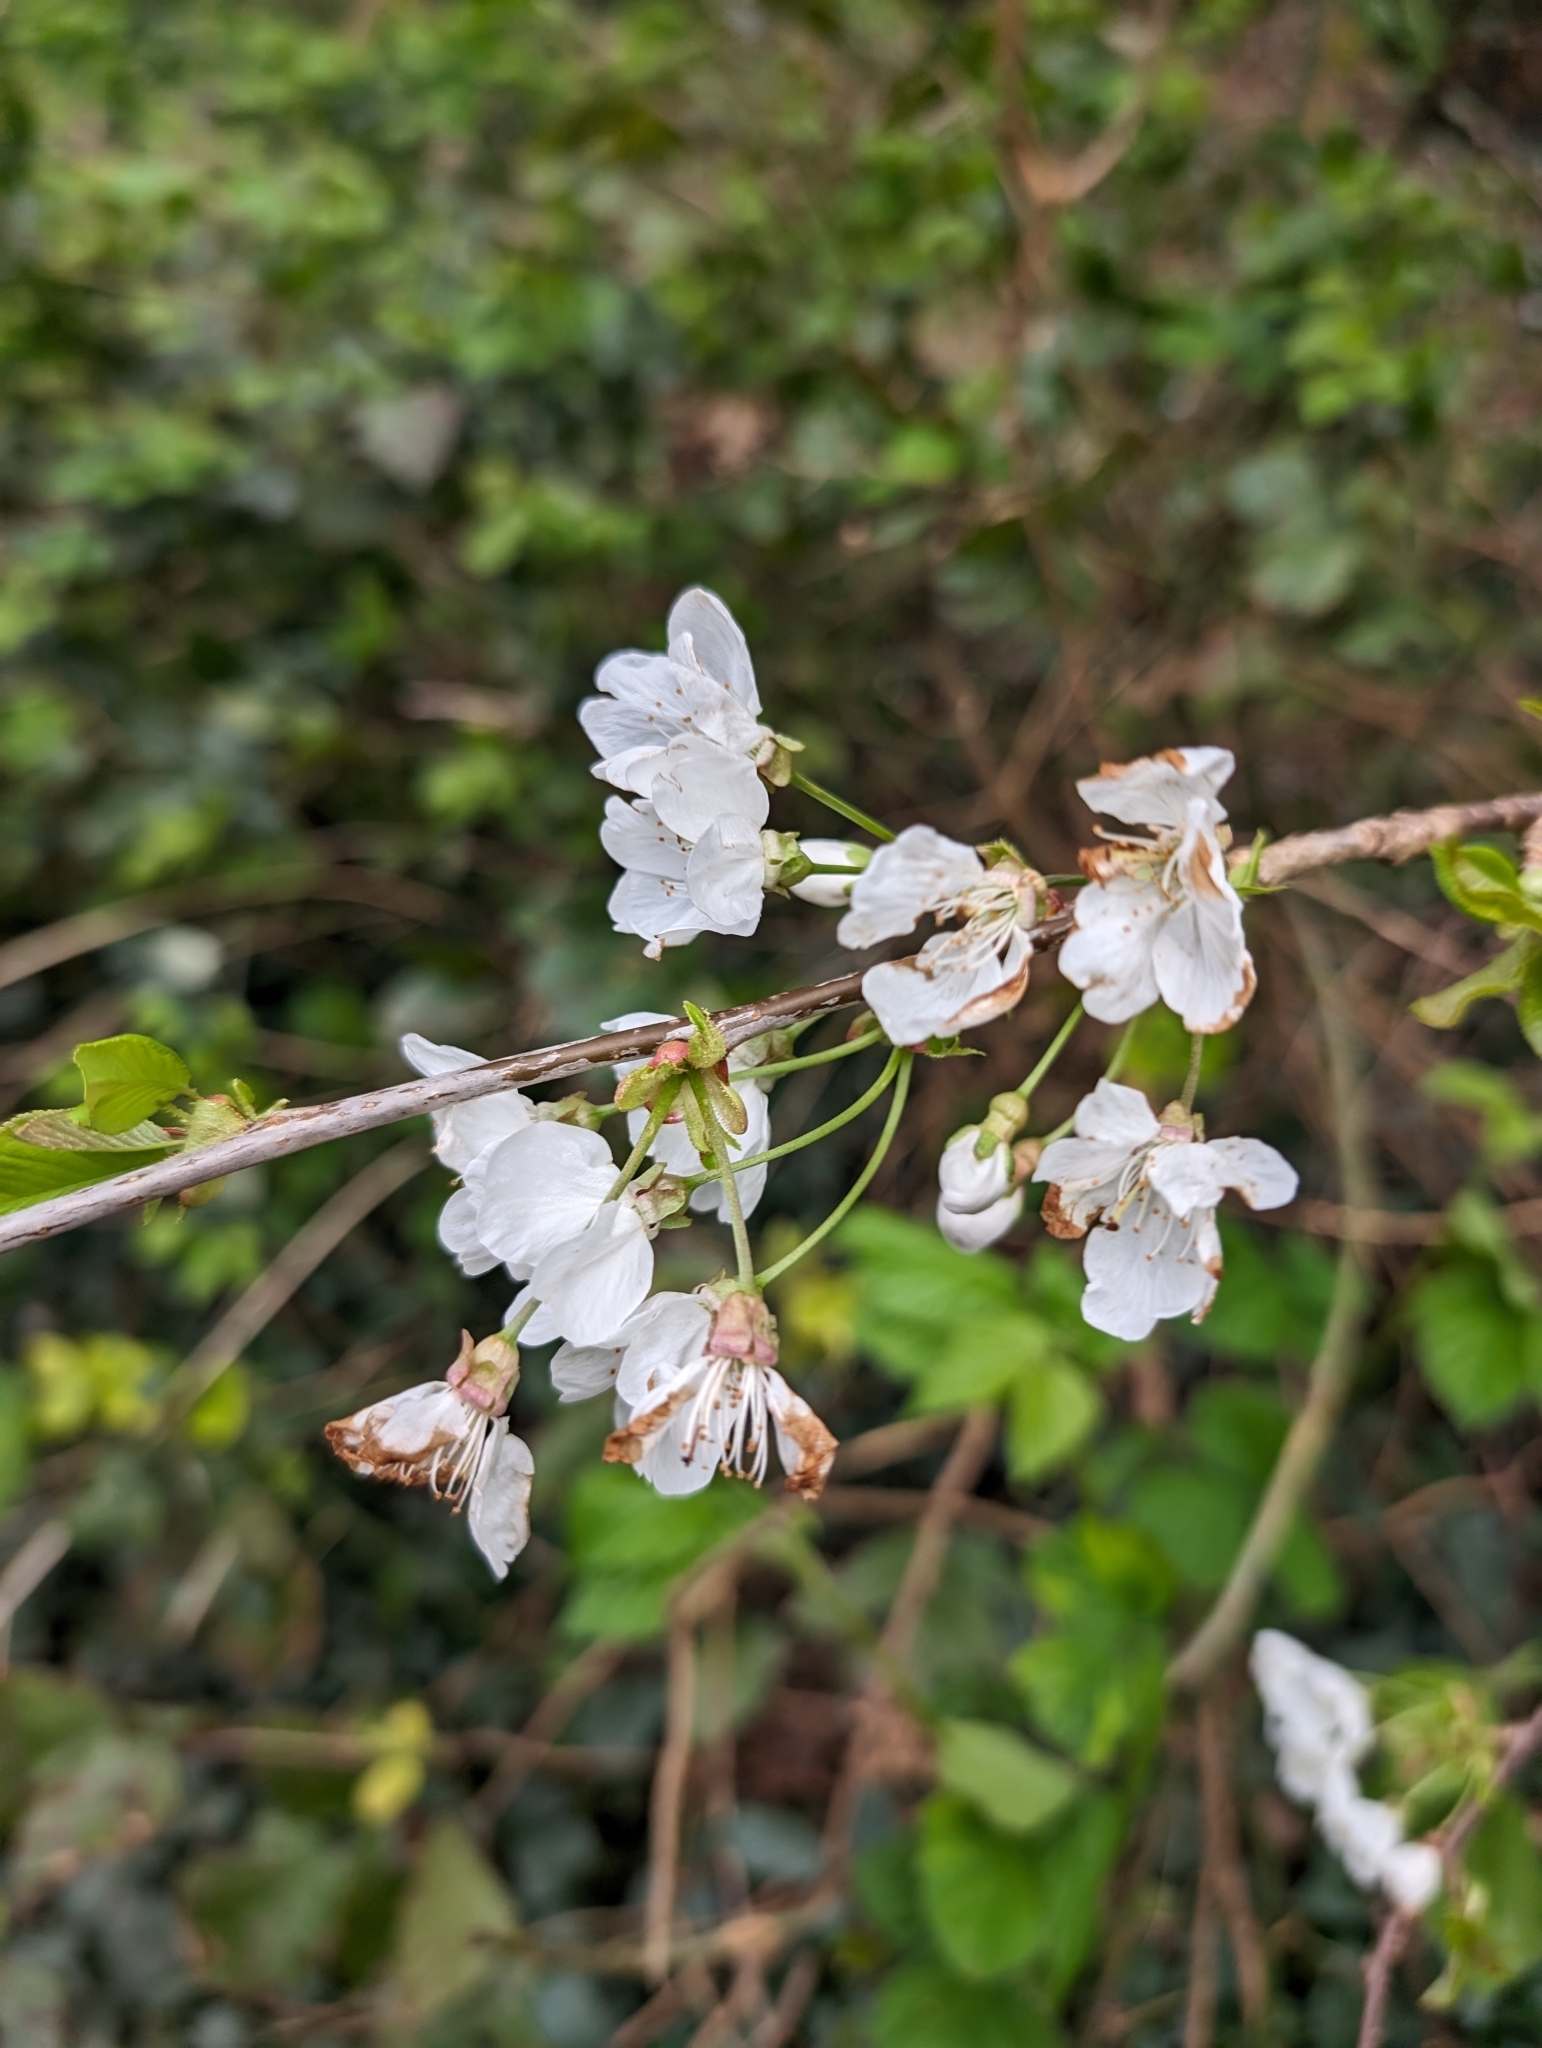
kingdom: Plantae
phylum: Tracheophyta
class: Magnoliopsida
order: Rosales
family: Rosaceae
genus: Prunus
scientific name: Prunus avium
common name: Sweet cherry
